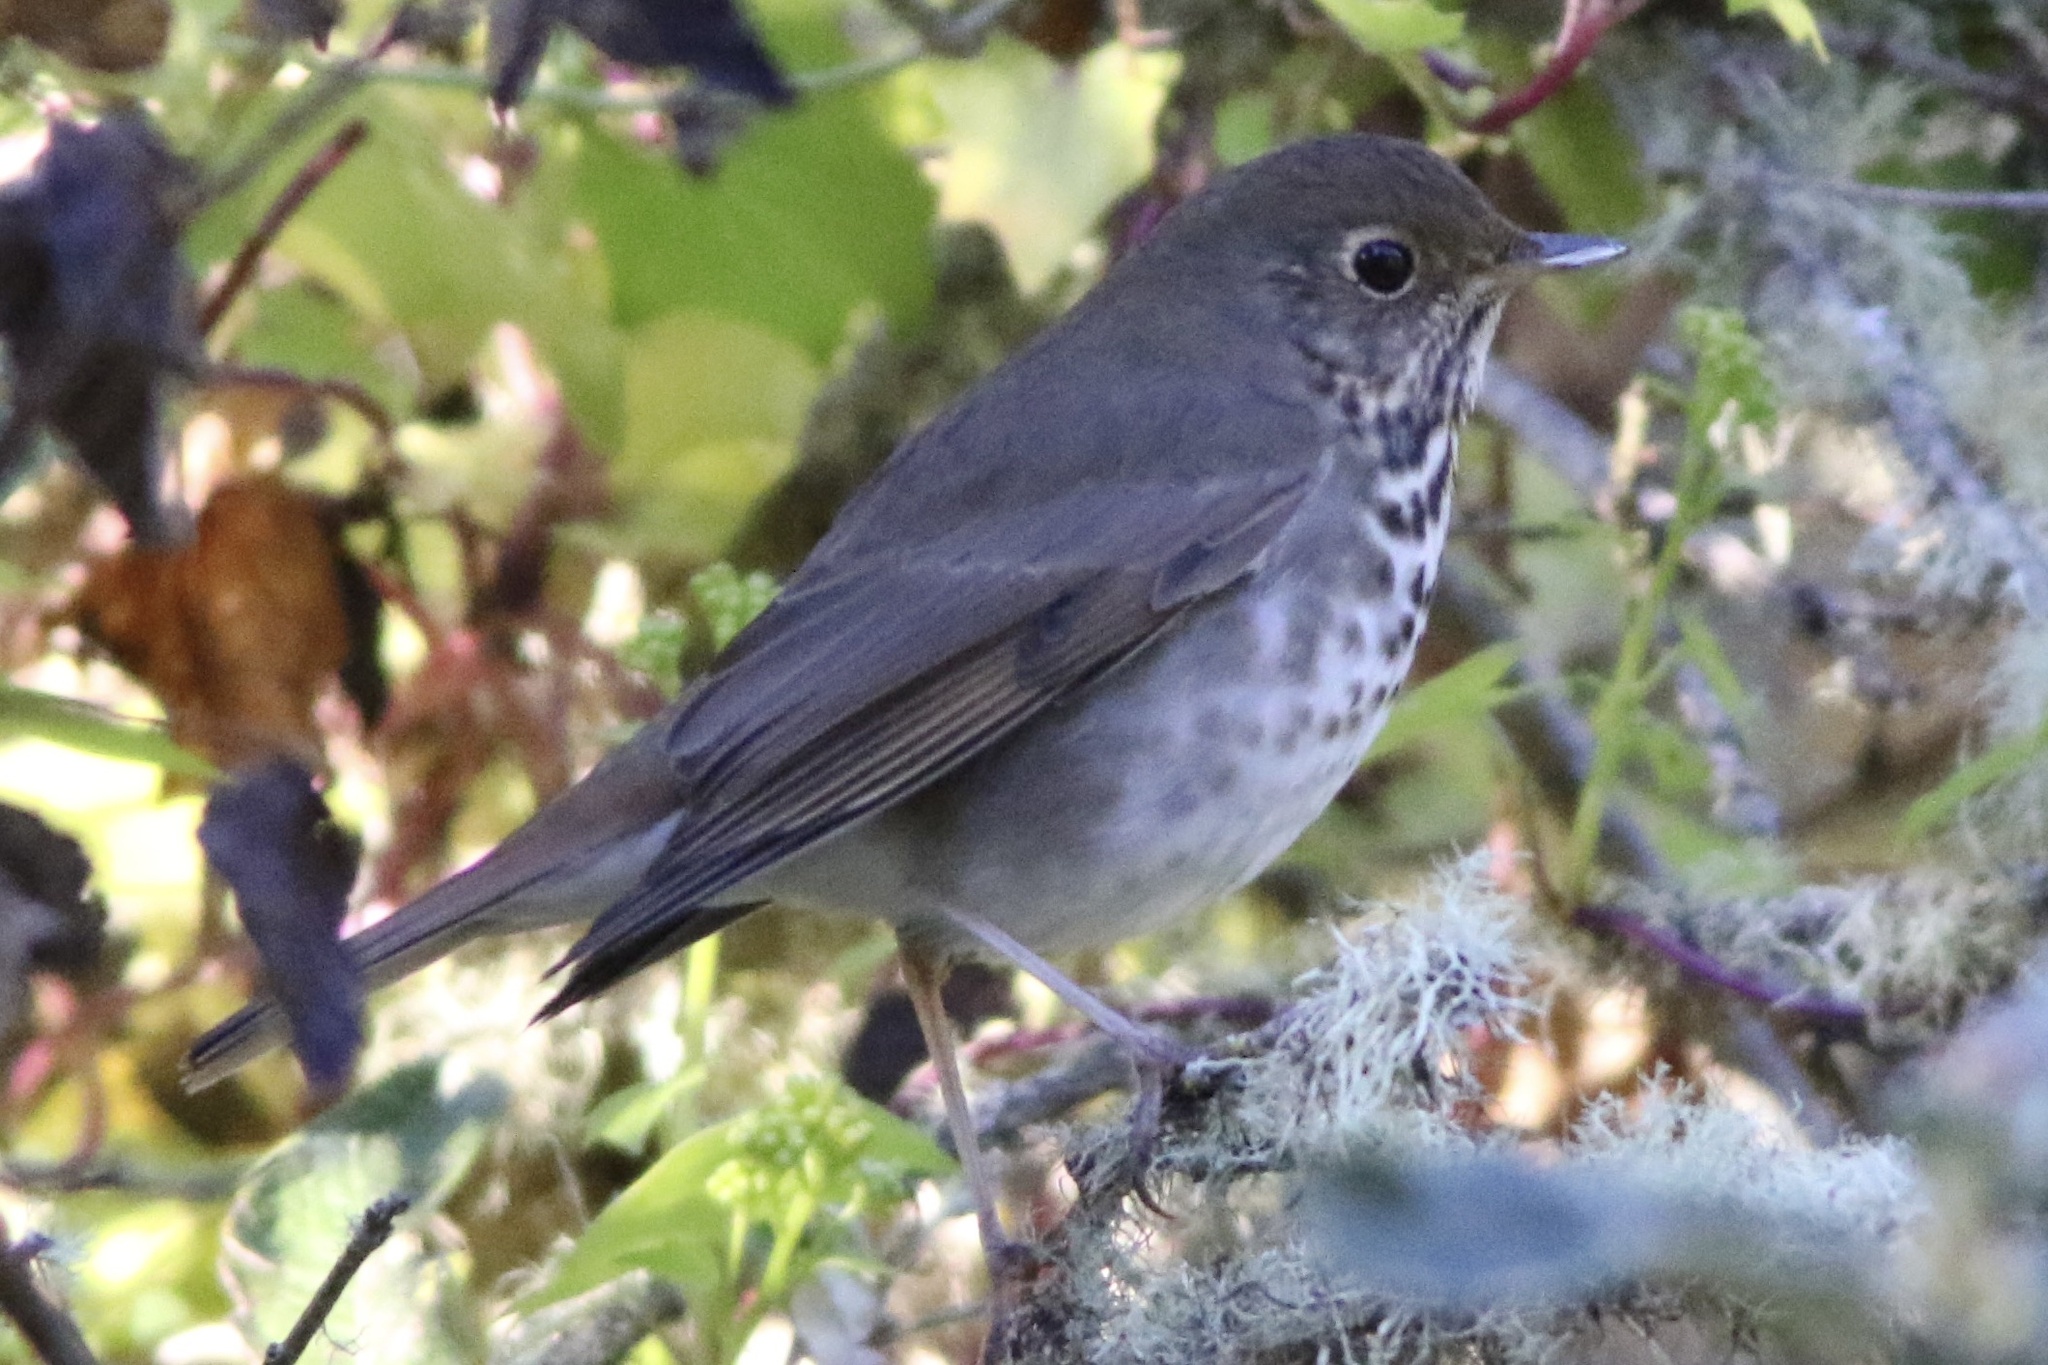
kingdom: Animalia
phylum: Chordata
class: Aves
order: Passeriformes
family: Turdidae
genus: Catharus
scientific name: Catharus guttatus
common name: Hermit thrush
